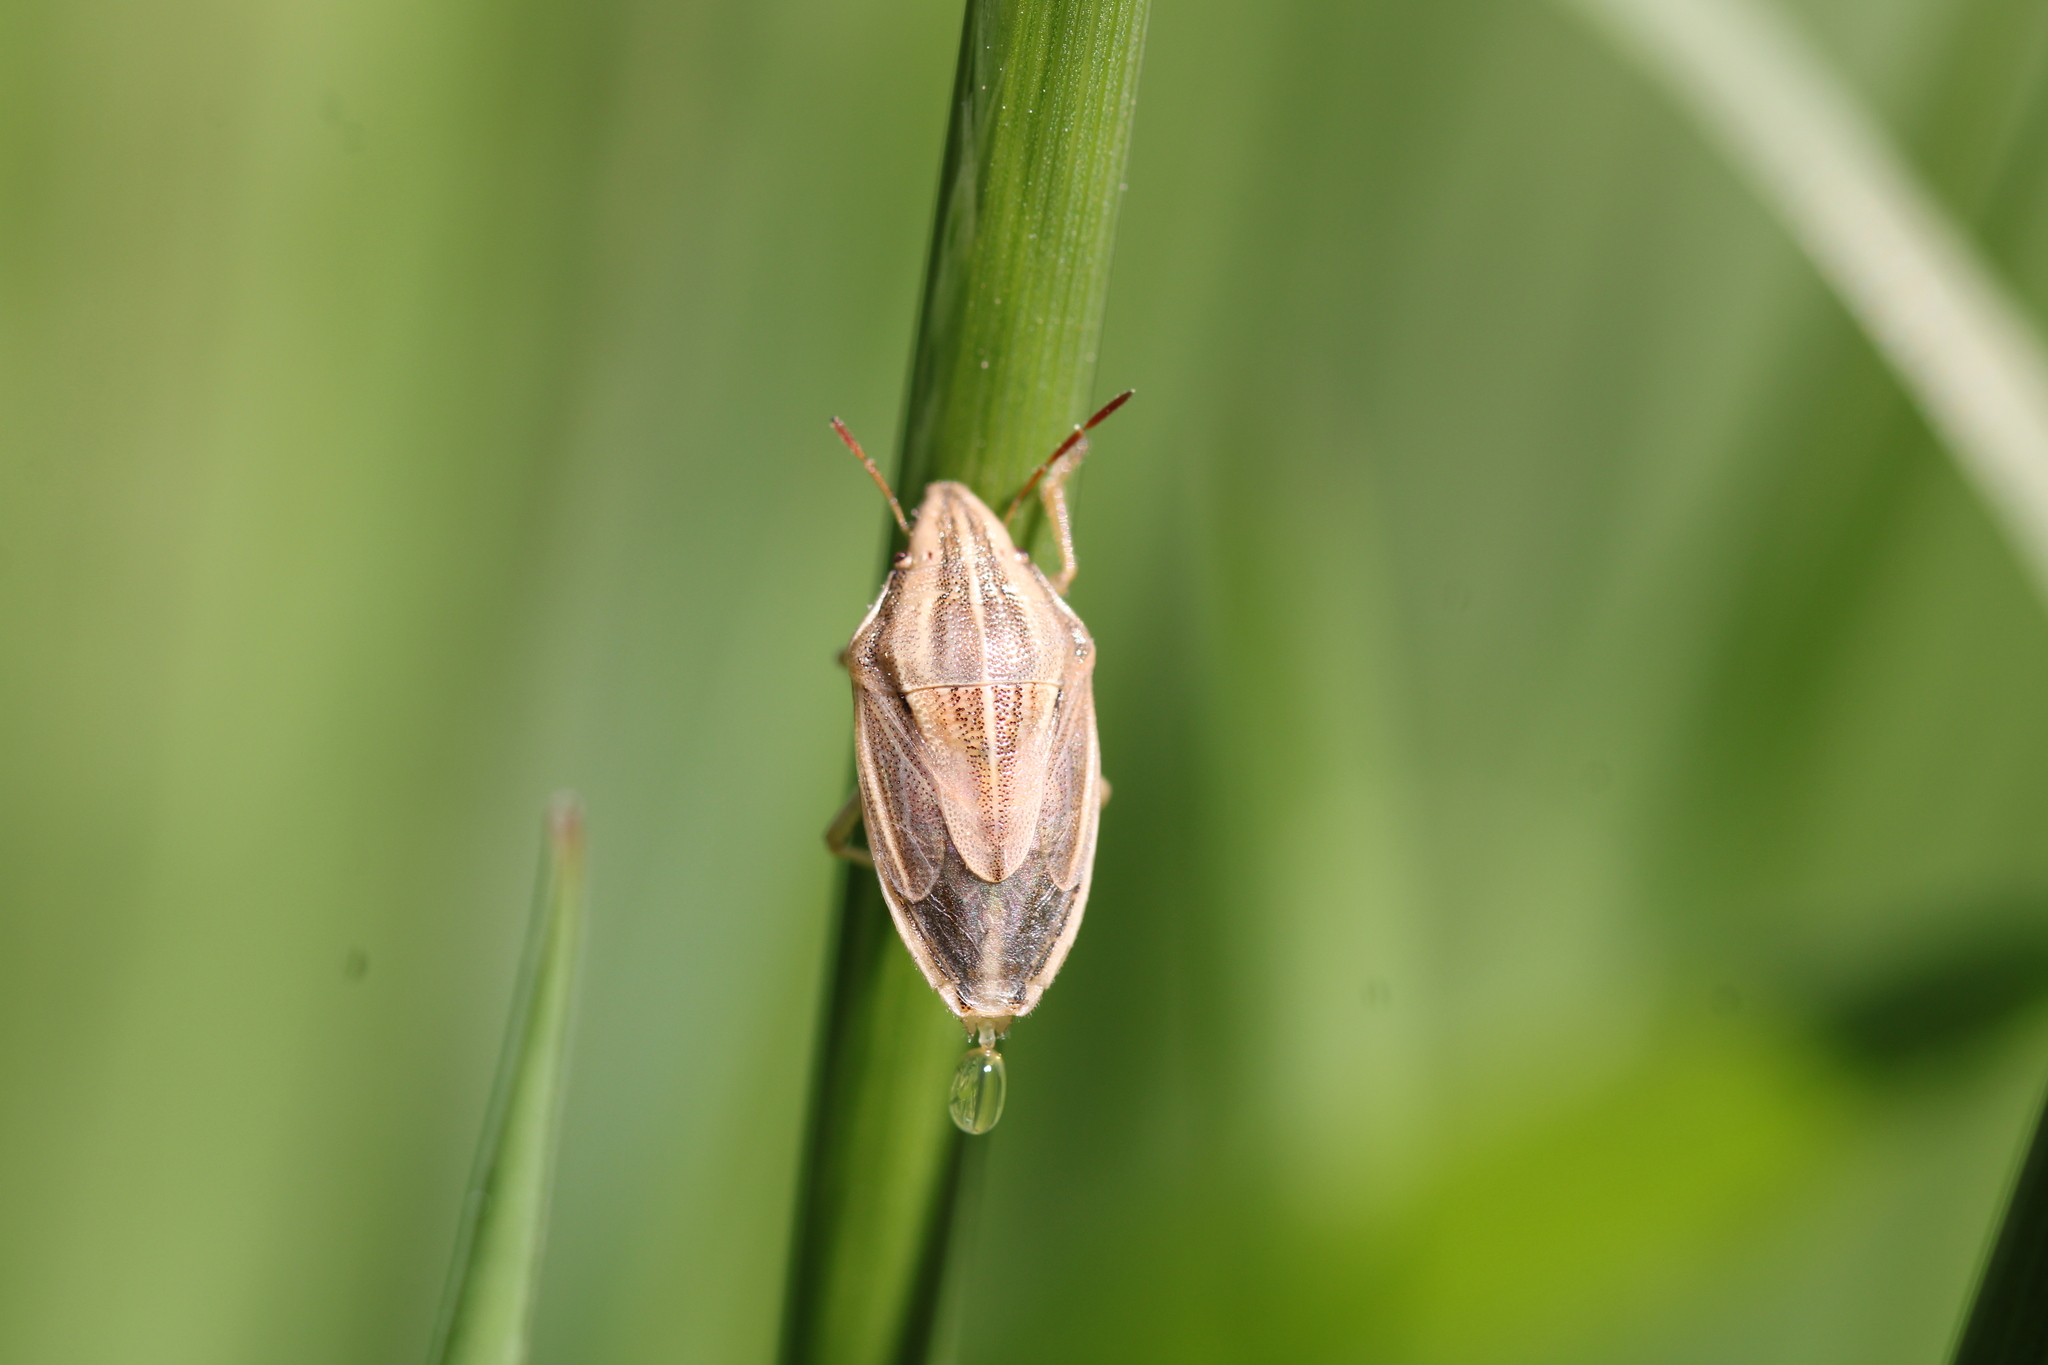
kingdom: Animalia
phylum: Arthropoda
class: Insecta
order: Hemiptera
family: Pentatomidae
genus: Aelia
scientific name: Aelia acuminata
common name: Bishop's mitre
